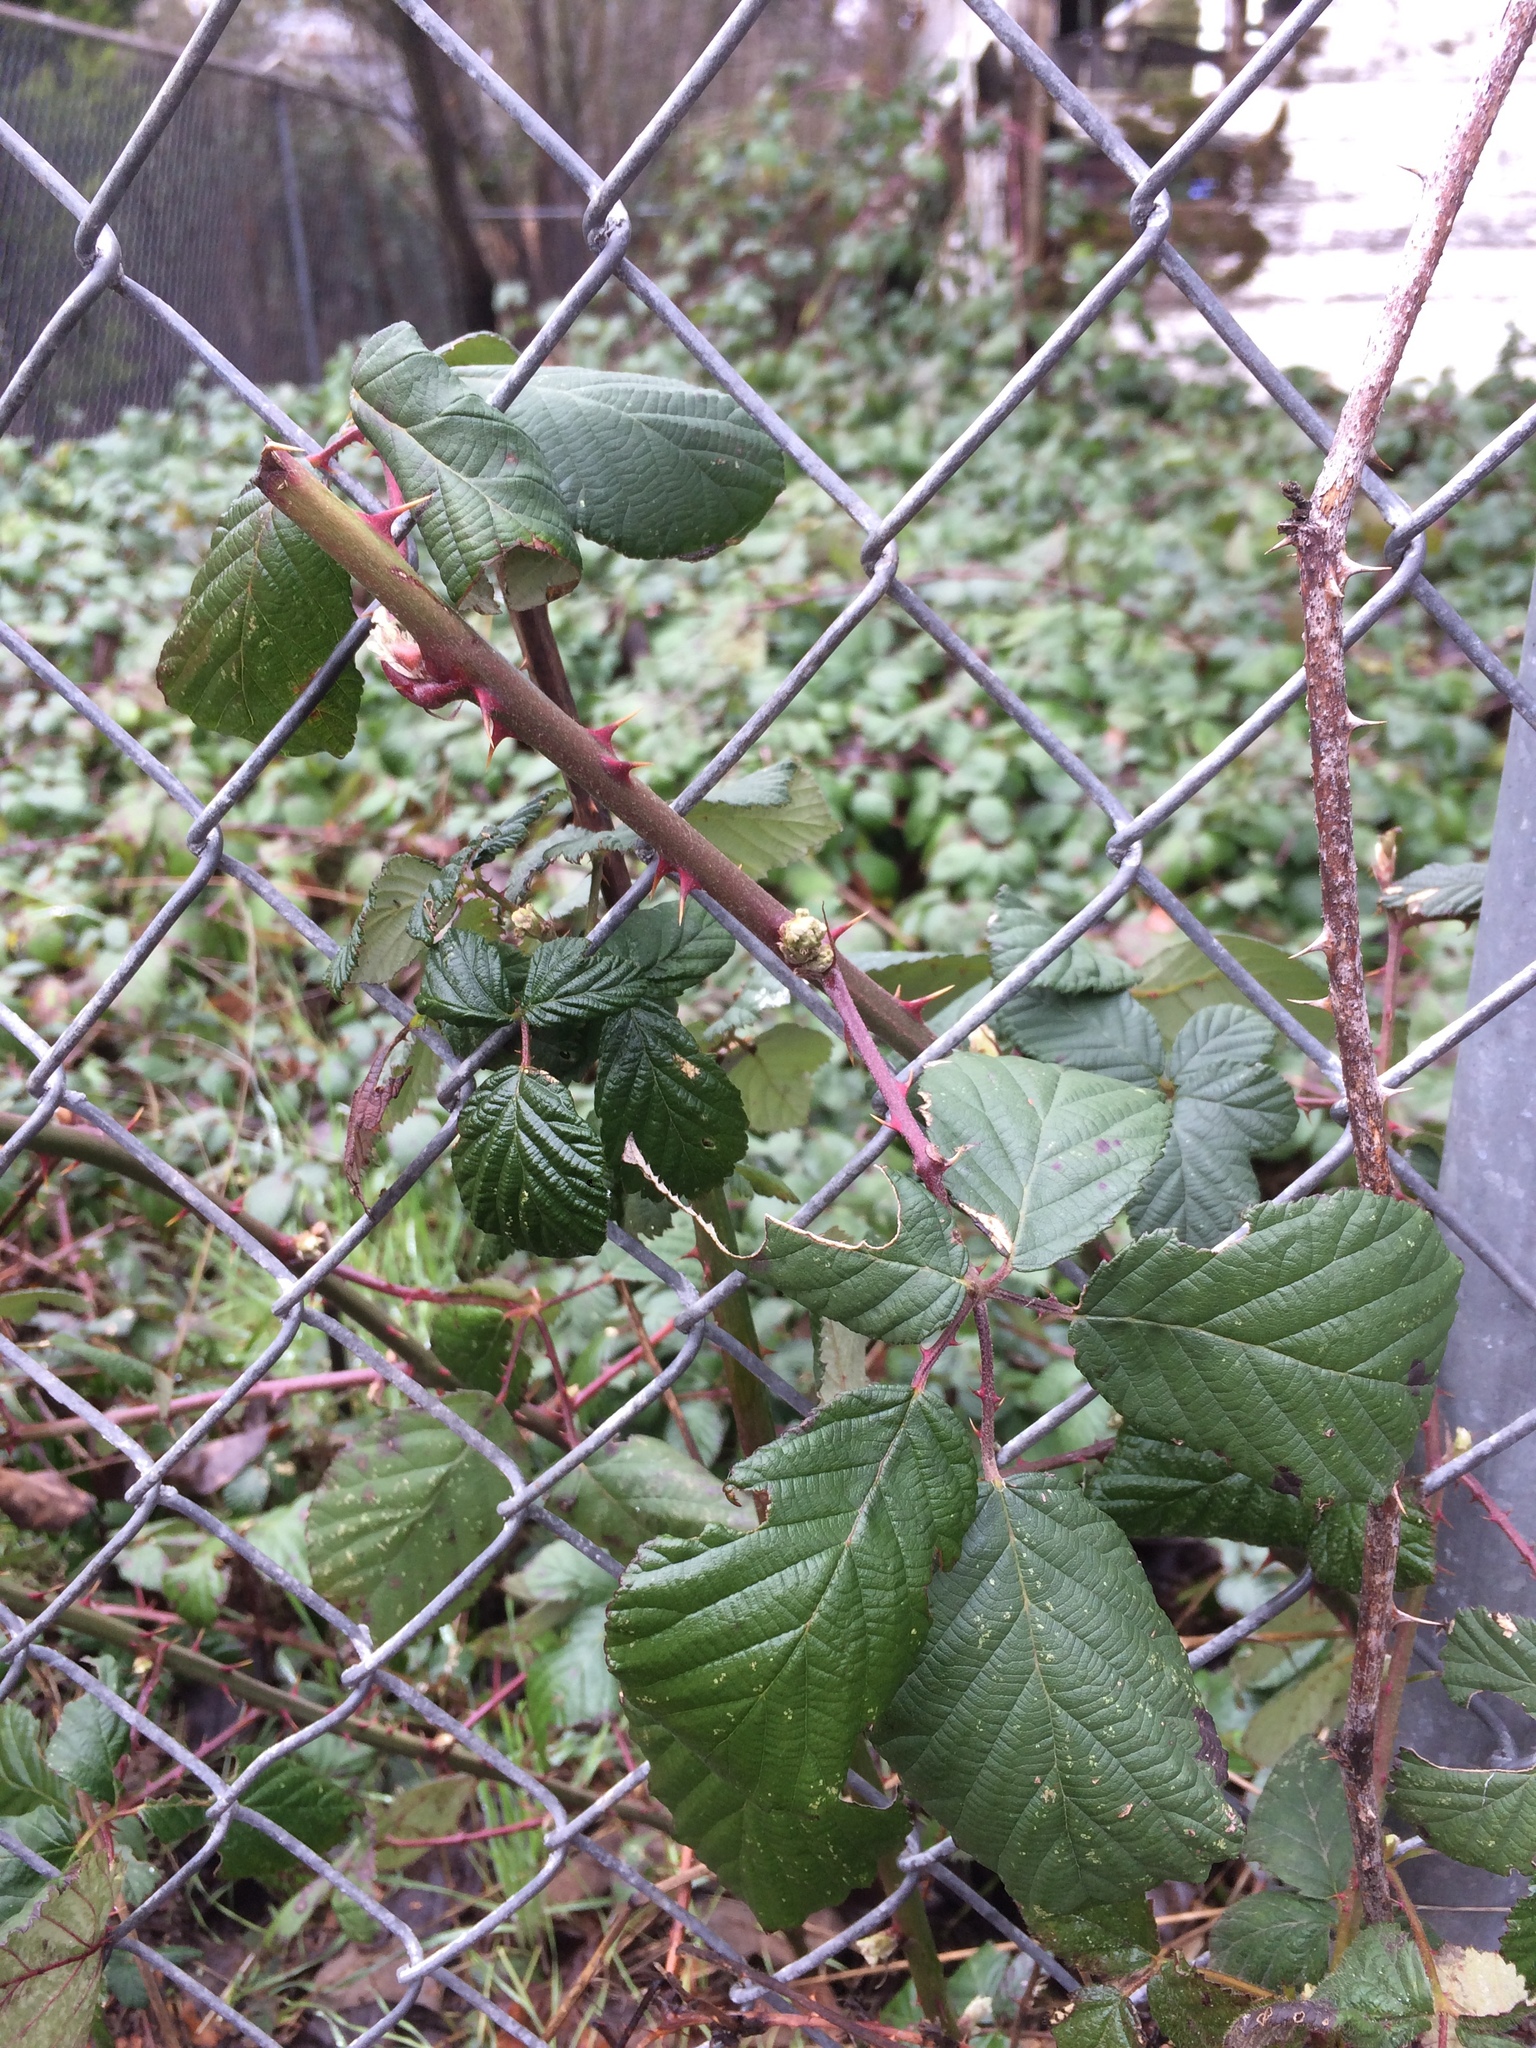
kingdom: Plantae
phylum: Tracheophyta
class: Magnoliopsida
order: Rosales
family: Rosaceae
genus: Rubus
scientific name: Rubus bifrons
